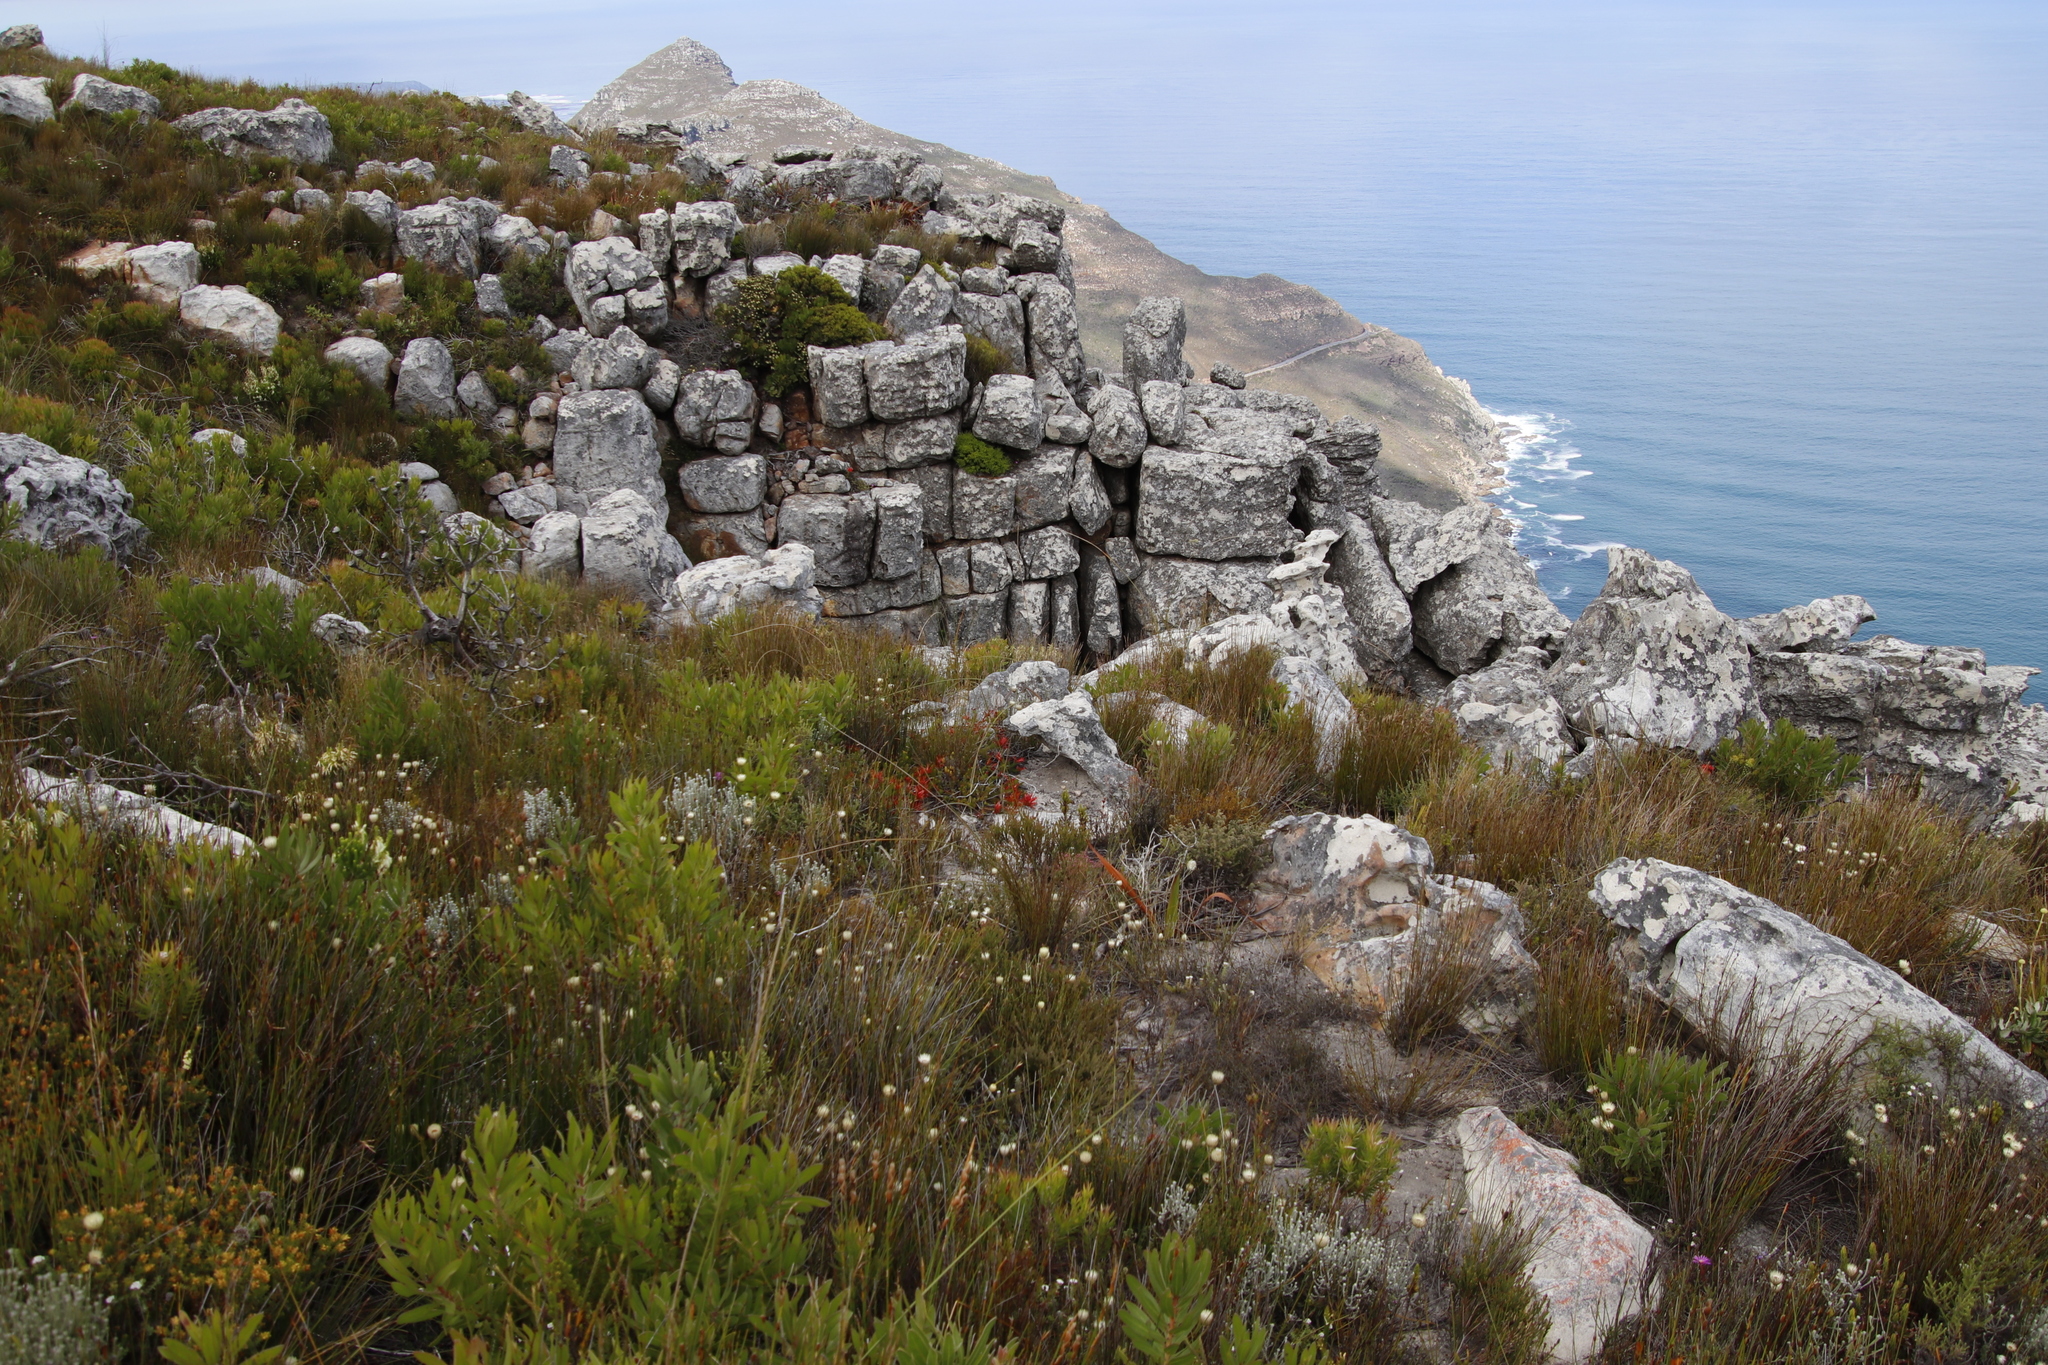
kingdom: Plantae
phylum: Tracheophyta
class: Magnoliopsida
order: Ericales
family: Ericaceae
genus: Erica
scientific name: Erica nevillei
